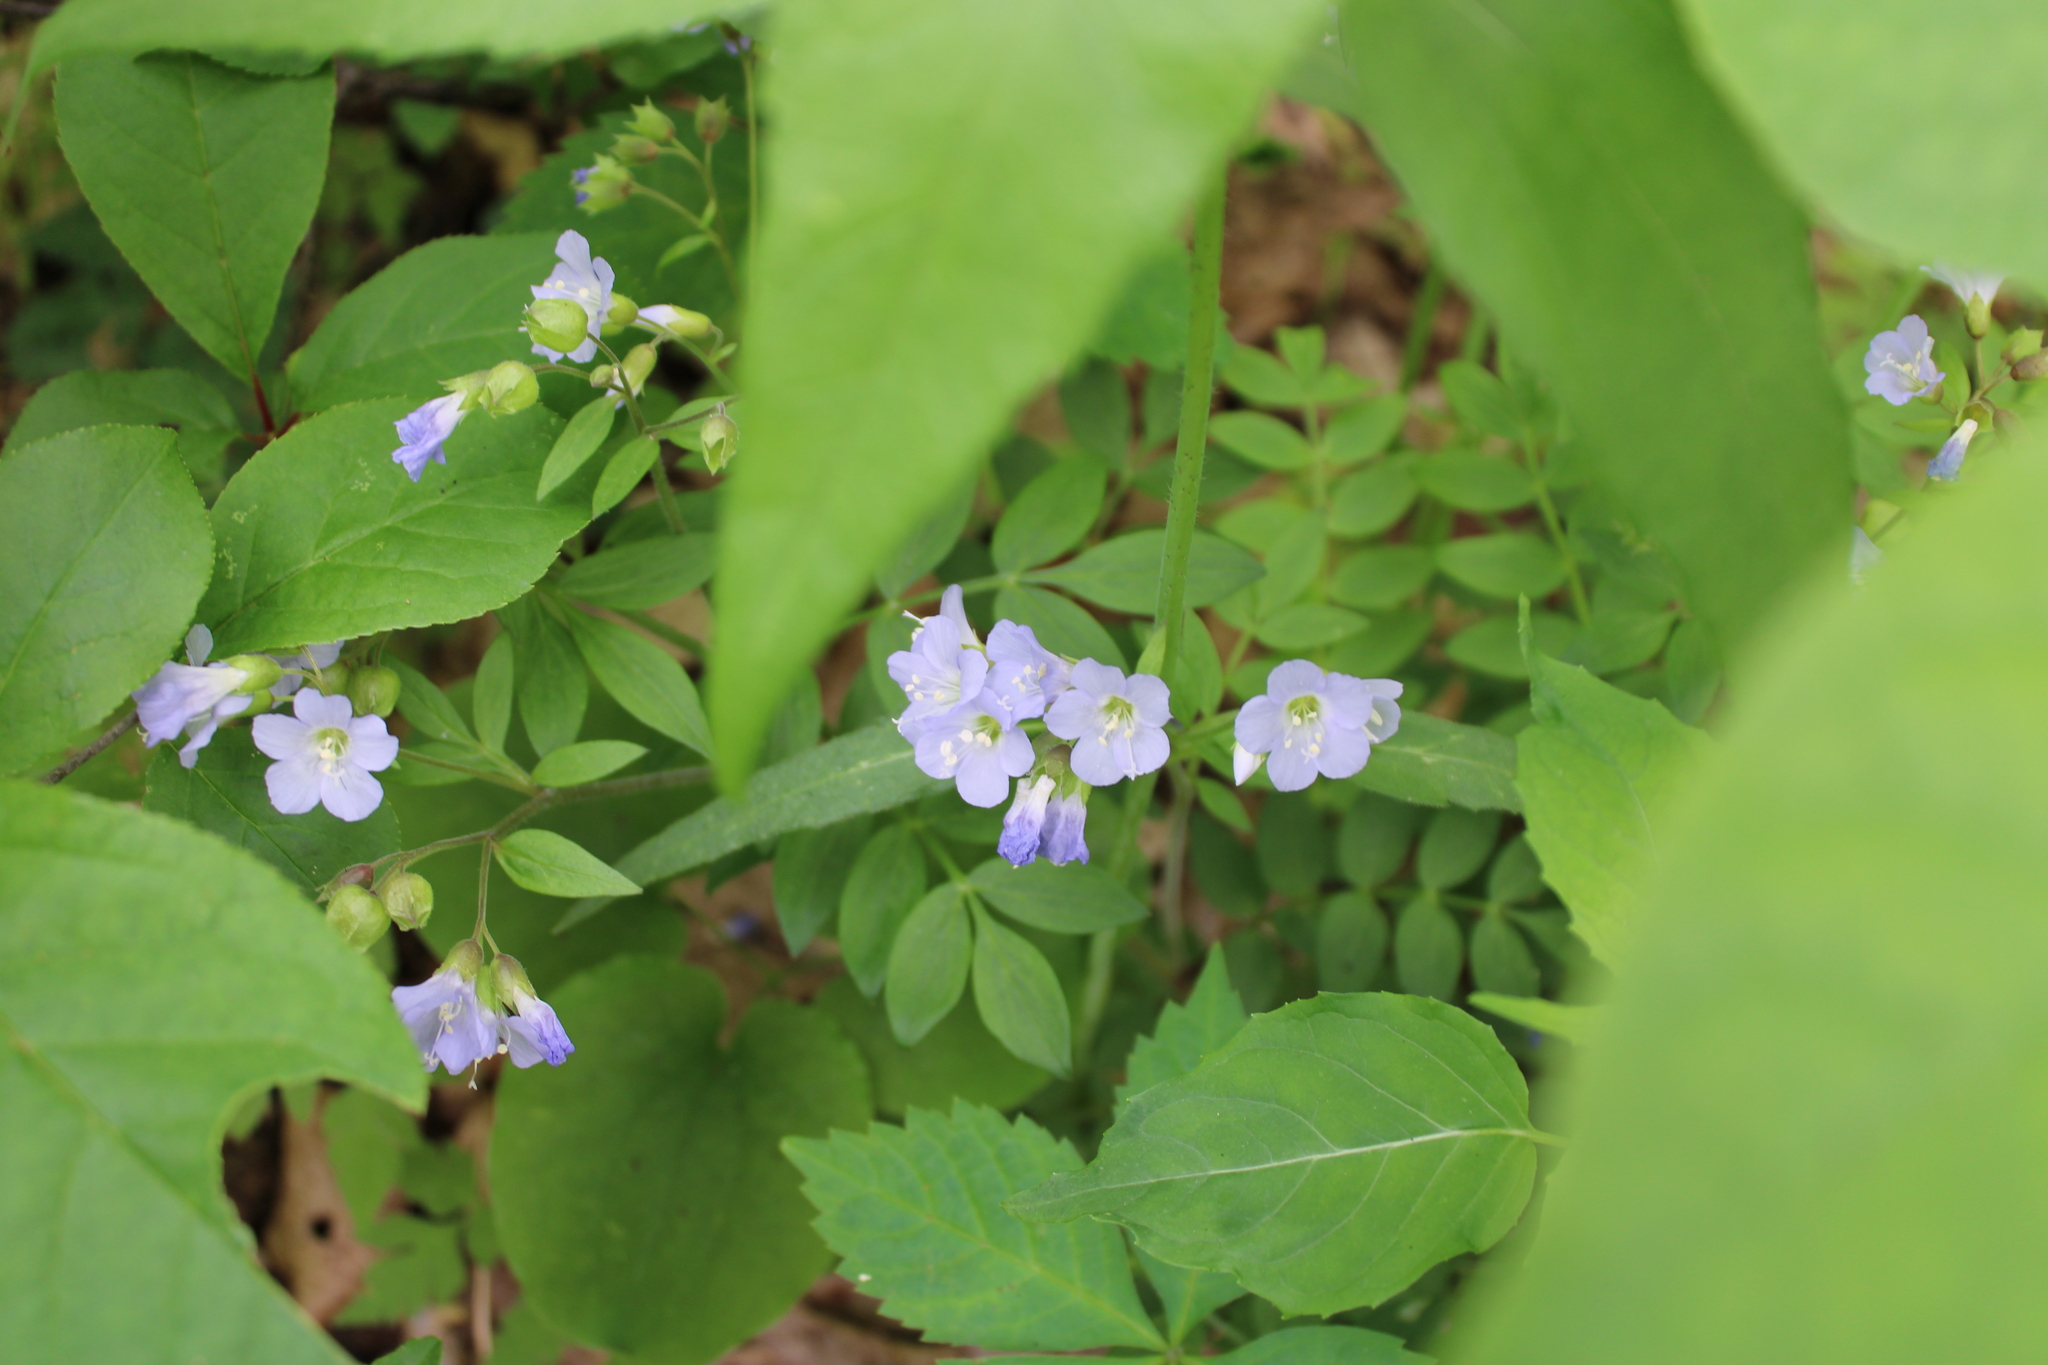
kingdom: Plantae
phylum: Tracheophyta
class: Magnoliopsida
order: Ericales
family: Polemoniaceae
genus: Polemonium
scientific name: Polemonium reptans
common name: Creeping jacob's-ladder
